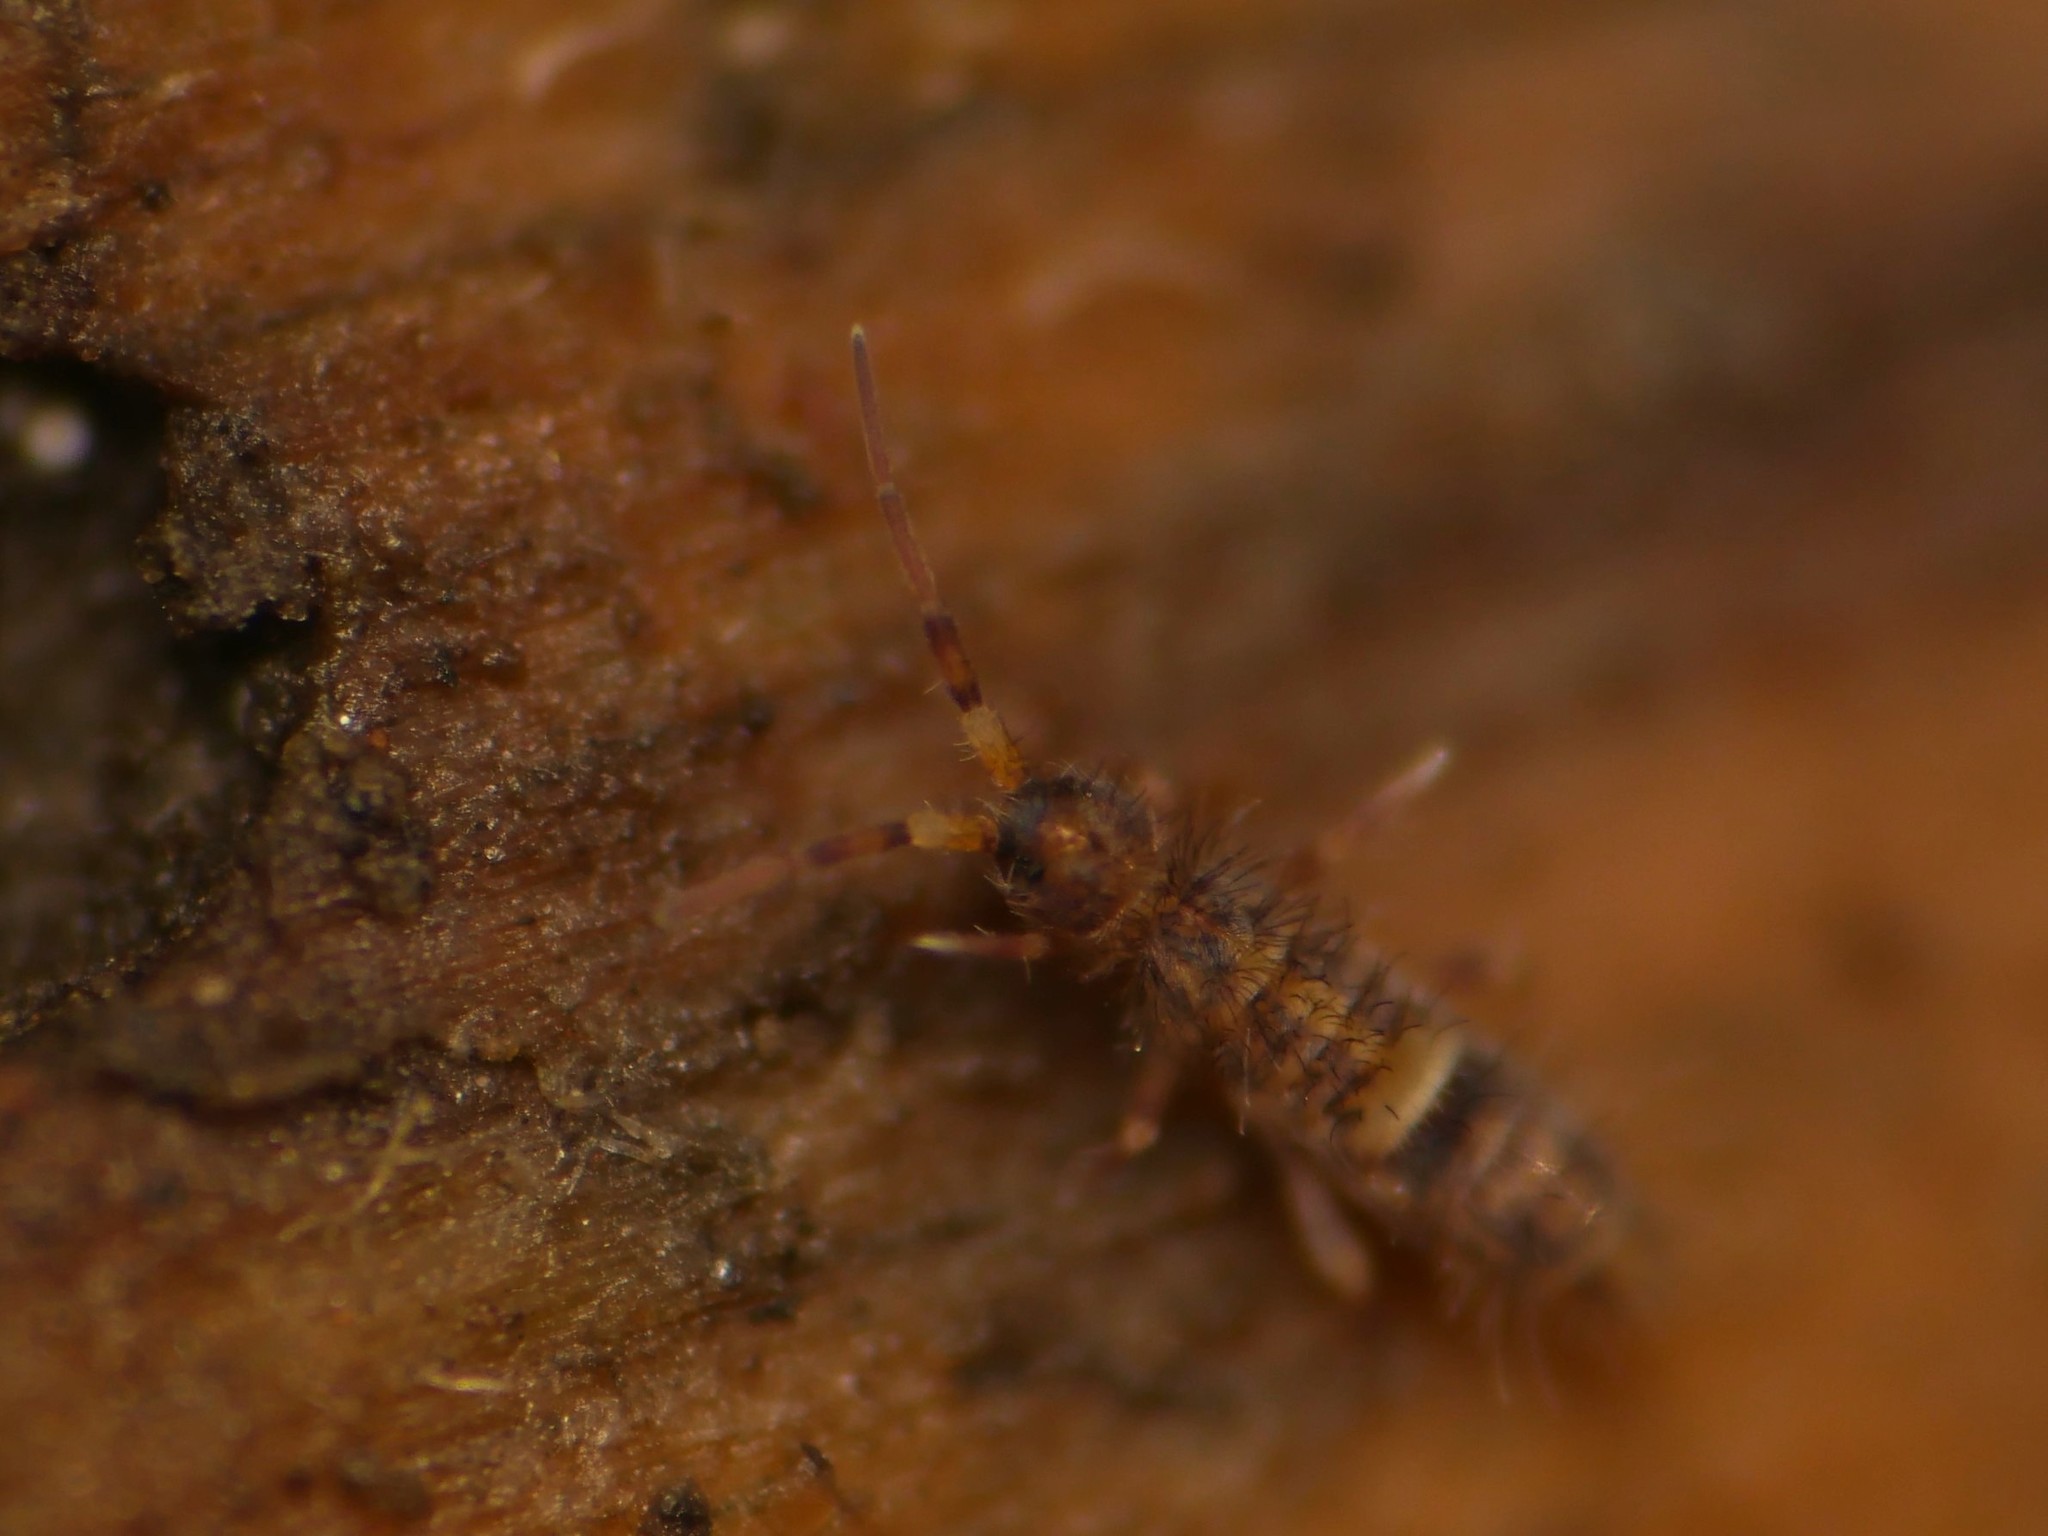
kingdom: Animalia
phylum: Arthropoda
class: Collembola
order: Entomobryomorpha
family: Orchesellidae
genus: Orchesella
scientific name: Orchesella cincta
